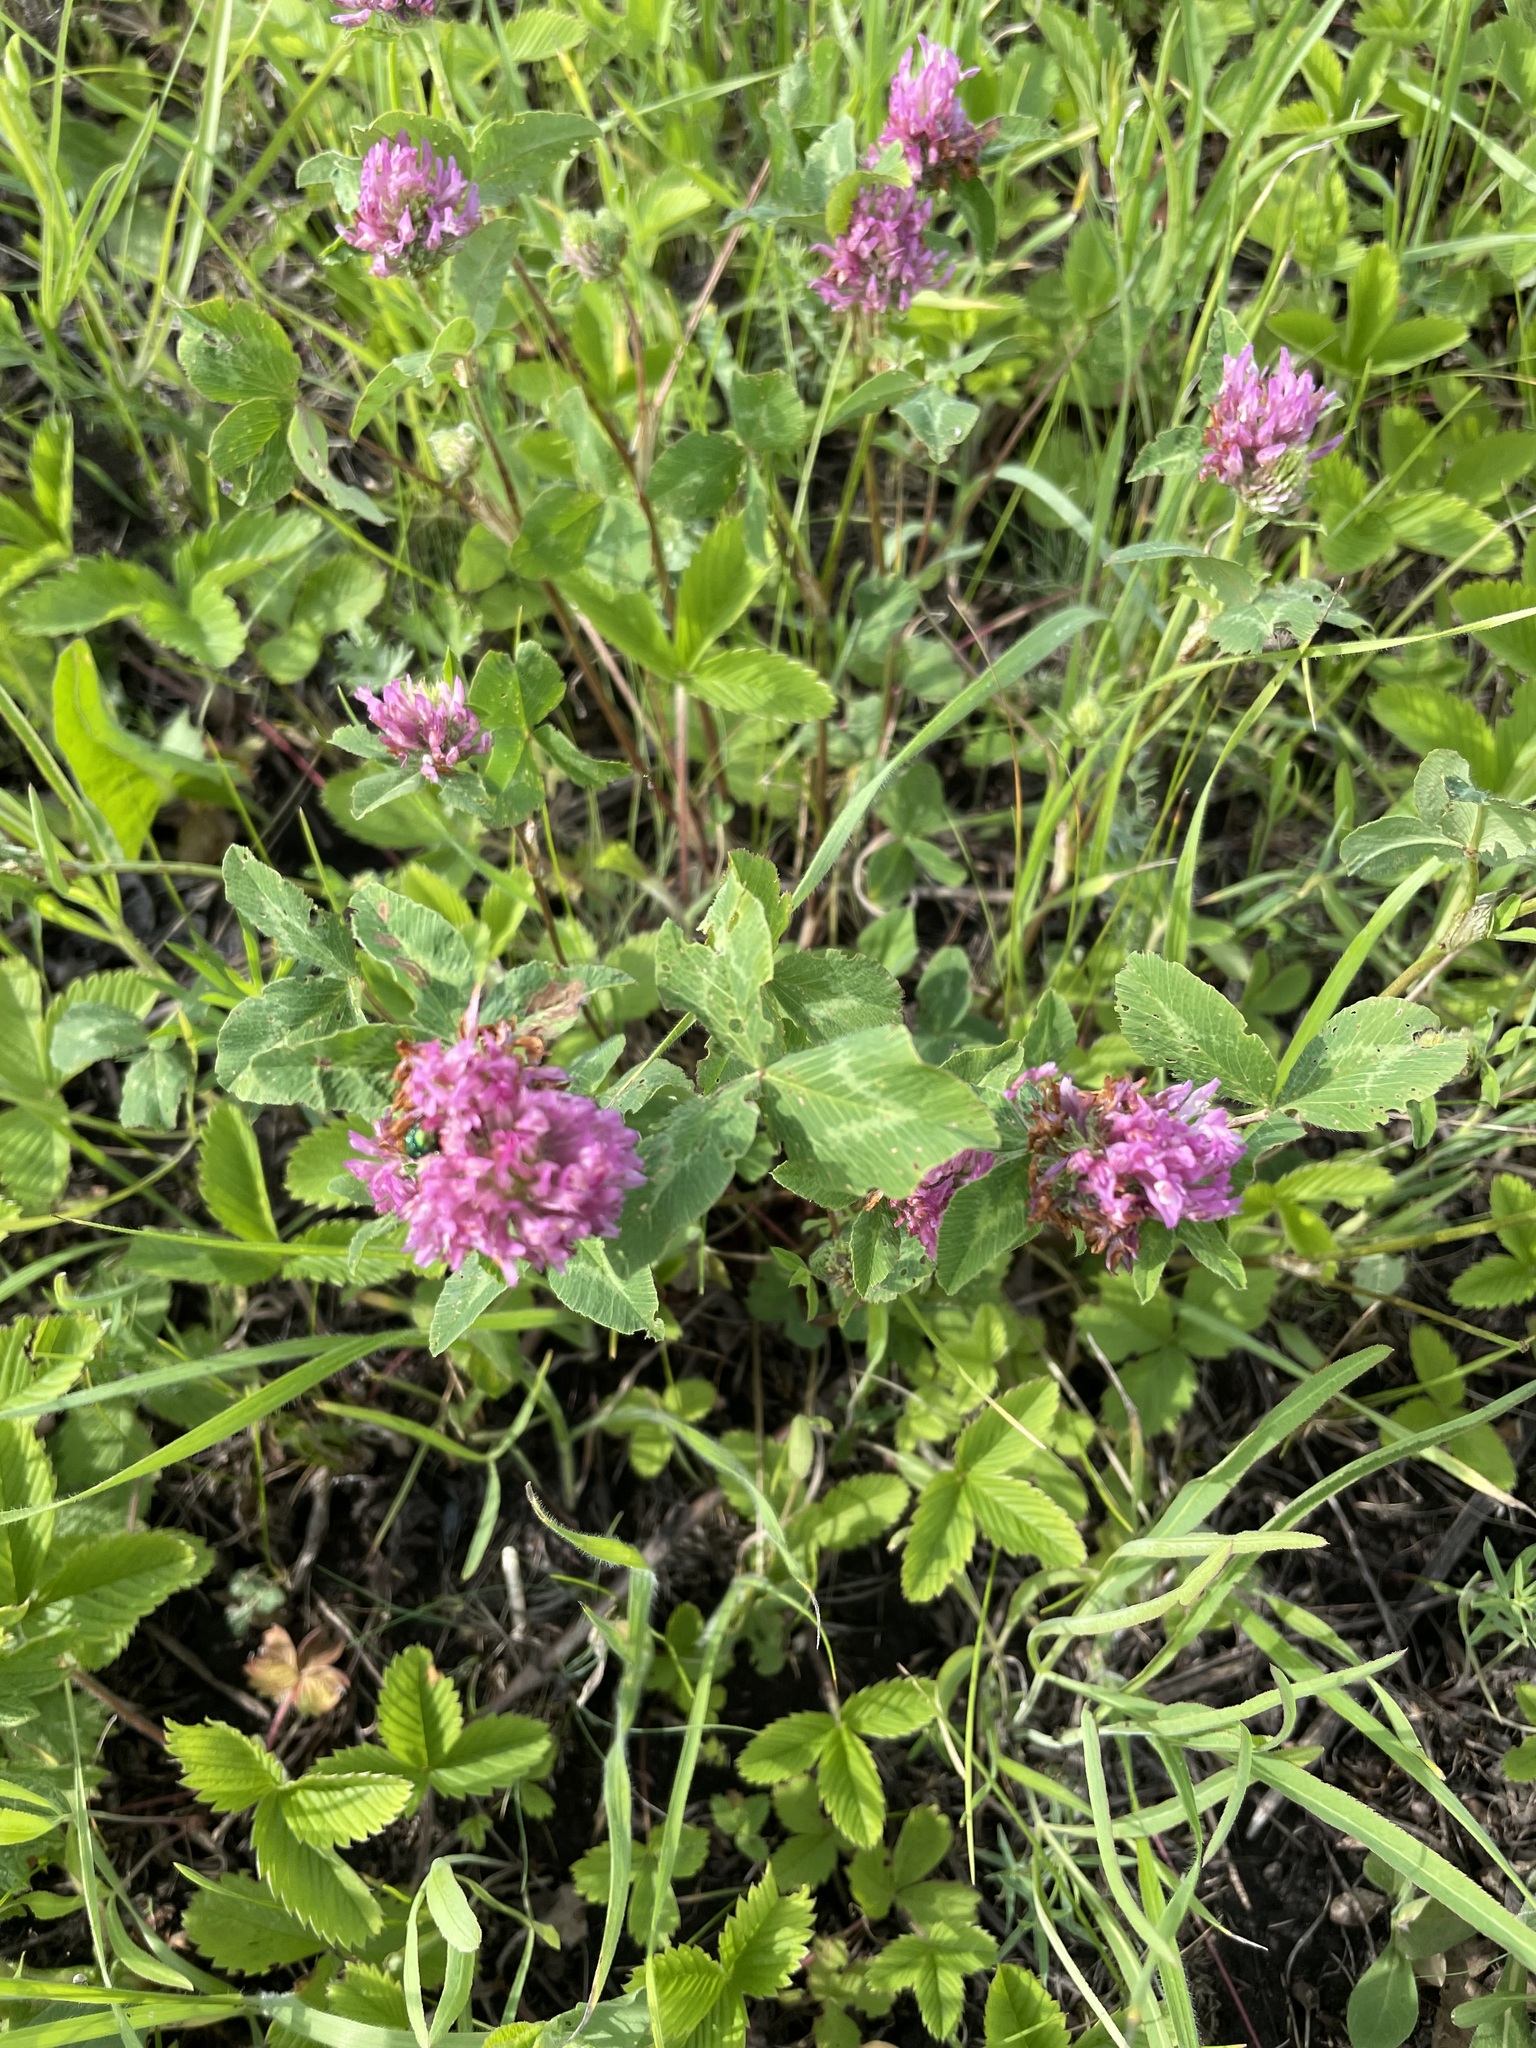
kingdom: Plantae
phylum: Tracheophyta
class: Magnoliopsida
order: Fabales
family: Fabaceae
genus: Trifolium
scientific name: Trifolium pratense
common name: Red clover
